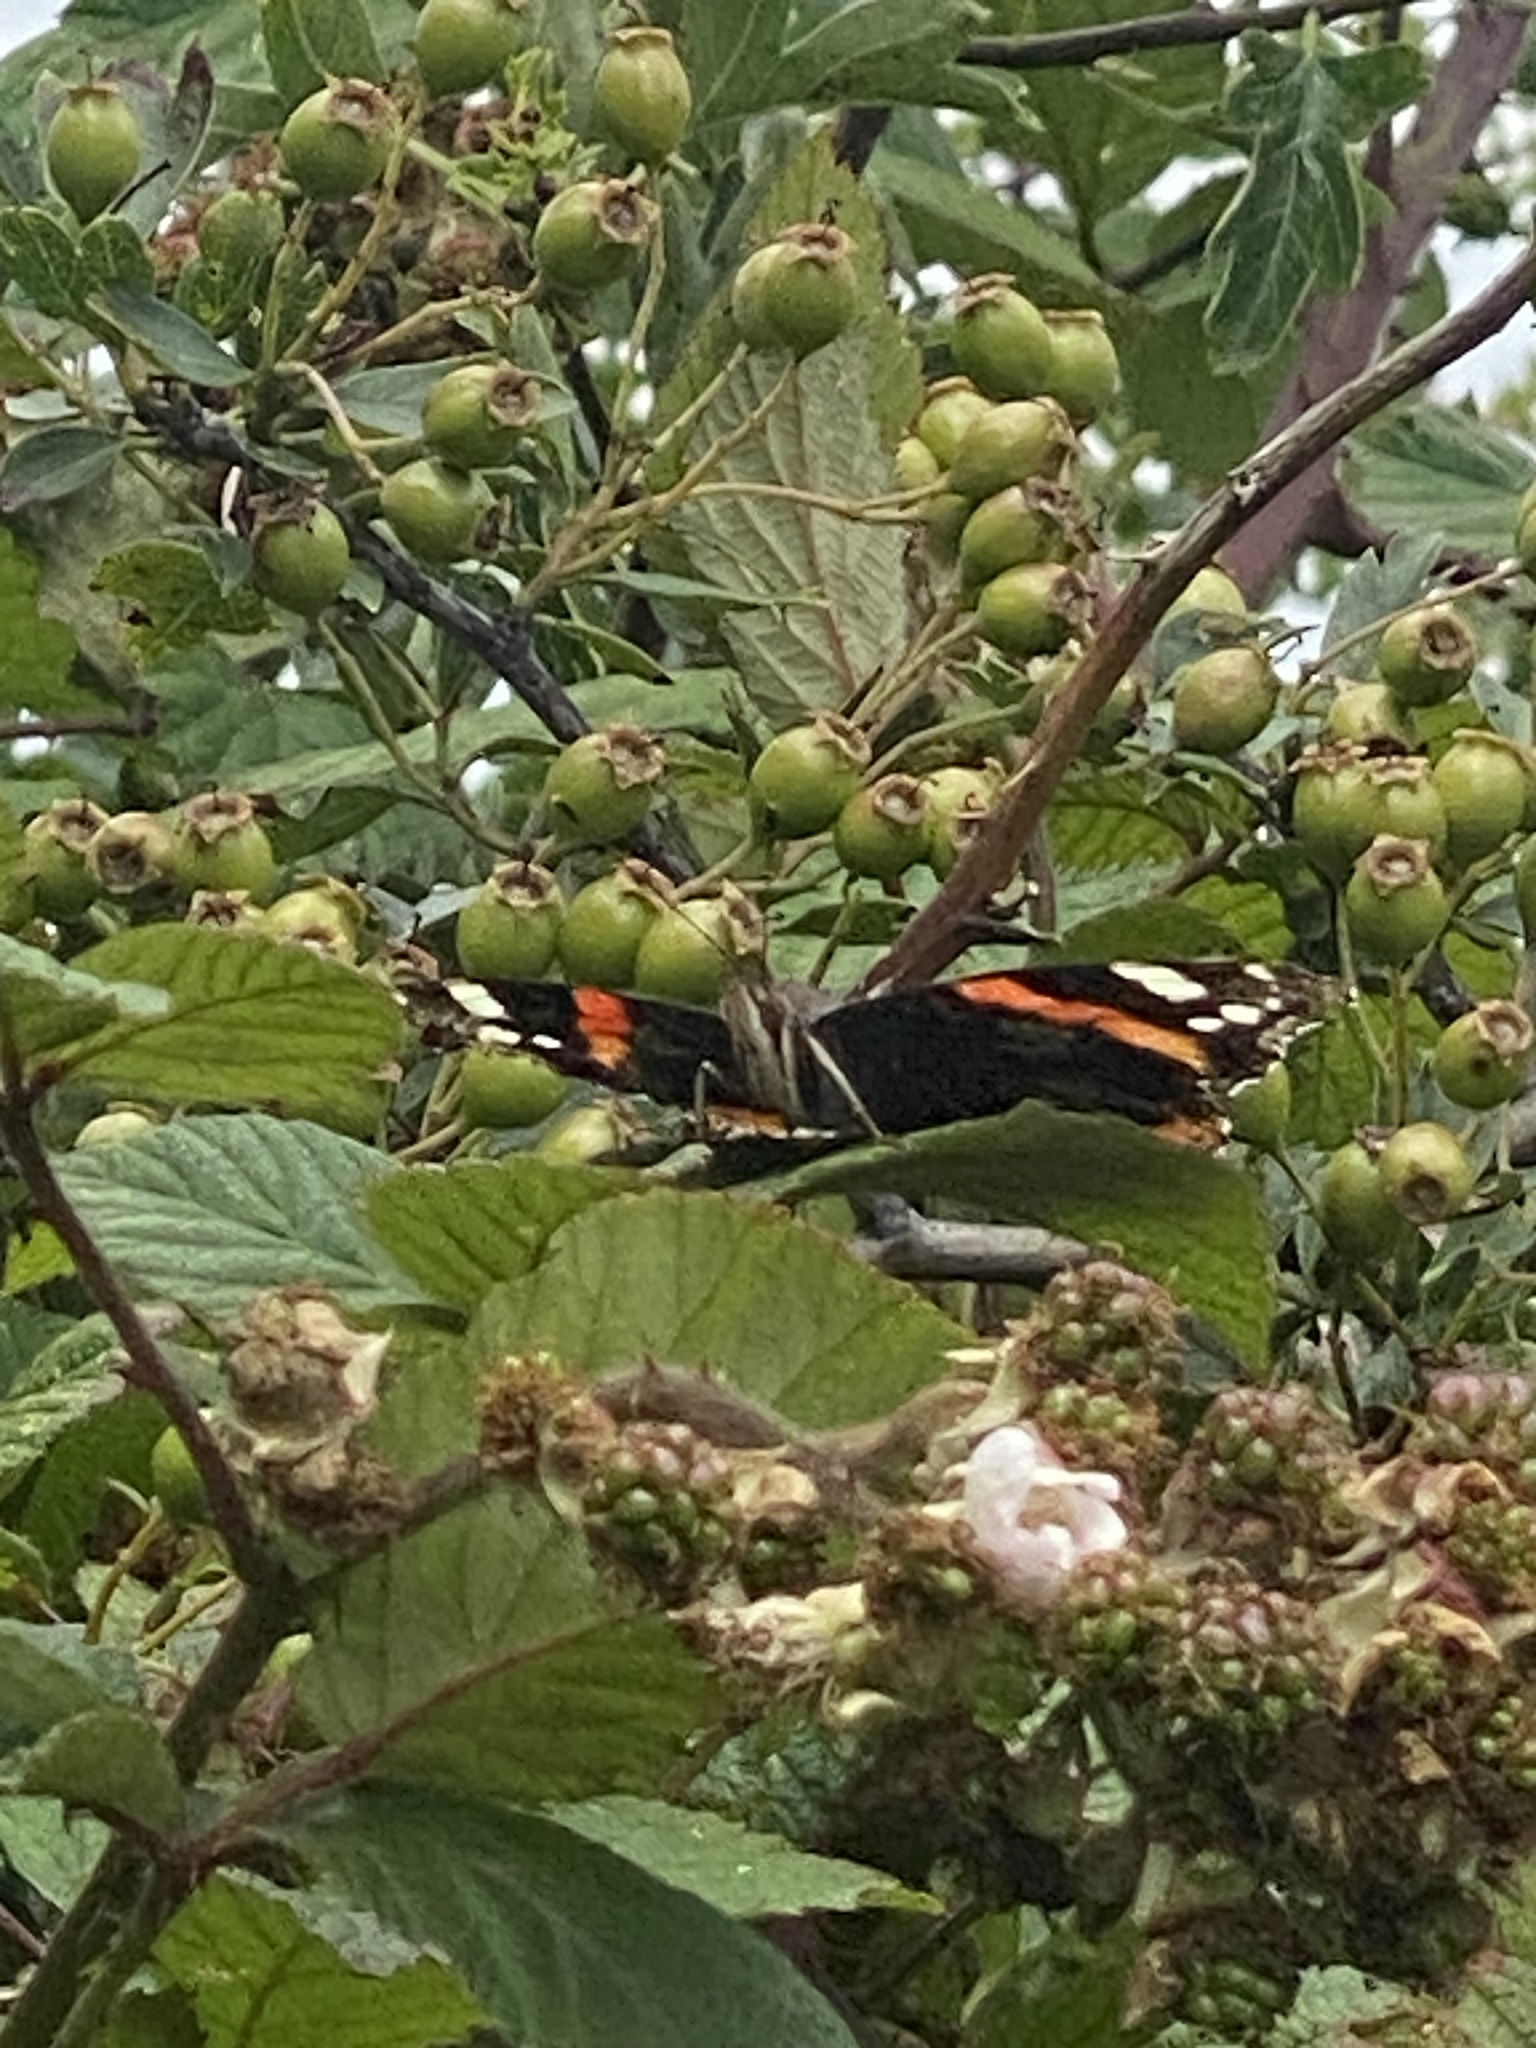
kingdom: Animalia
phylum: Arthropoda
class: Insecta
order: Lepidoptera
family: Nymphalidae
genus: Vanessa
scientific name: Vanessa atalanta
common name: Red admiral
